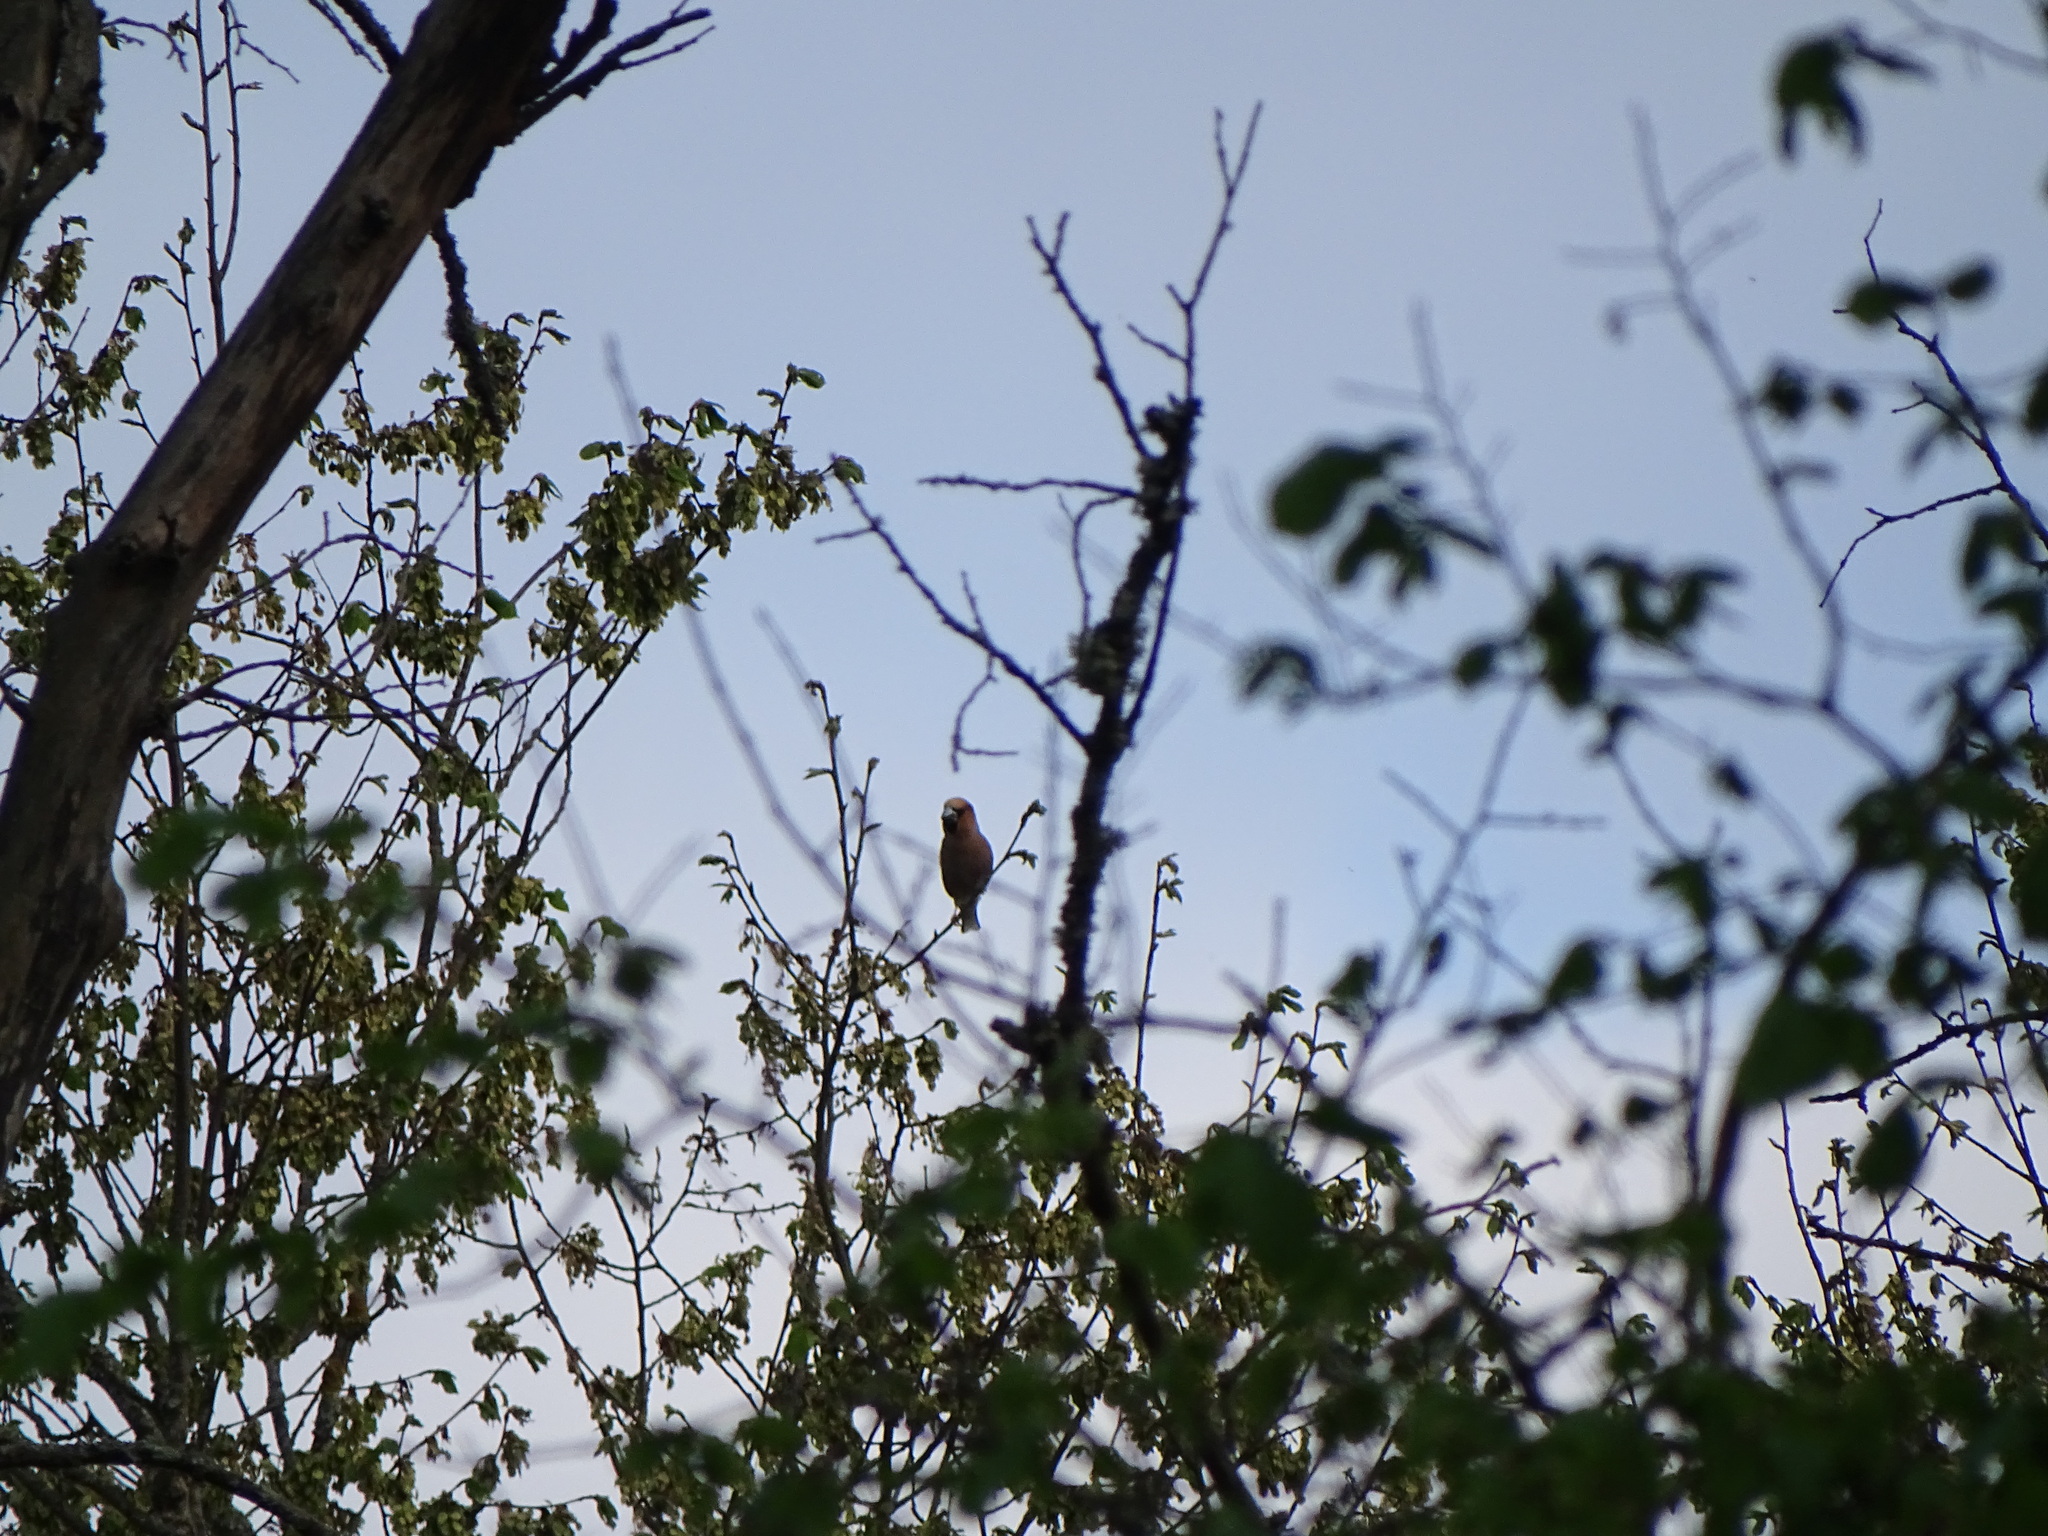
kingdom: Animalia
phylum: Chordata
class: Aves
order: Passeriformes
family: Fringillidae
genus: Coccothraustes
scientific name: Coccothraustes coccothraustes
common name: Hawfinch
